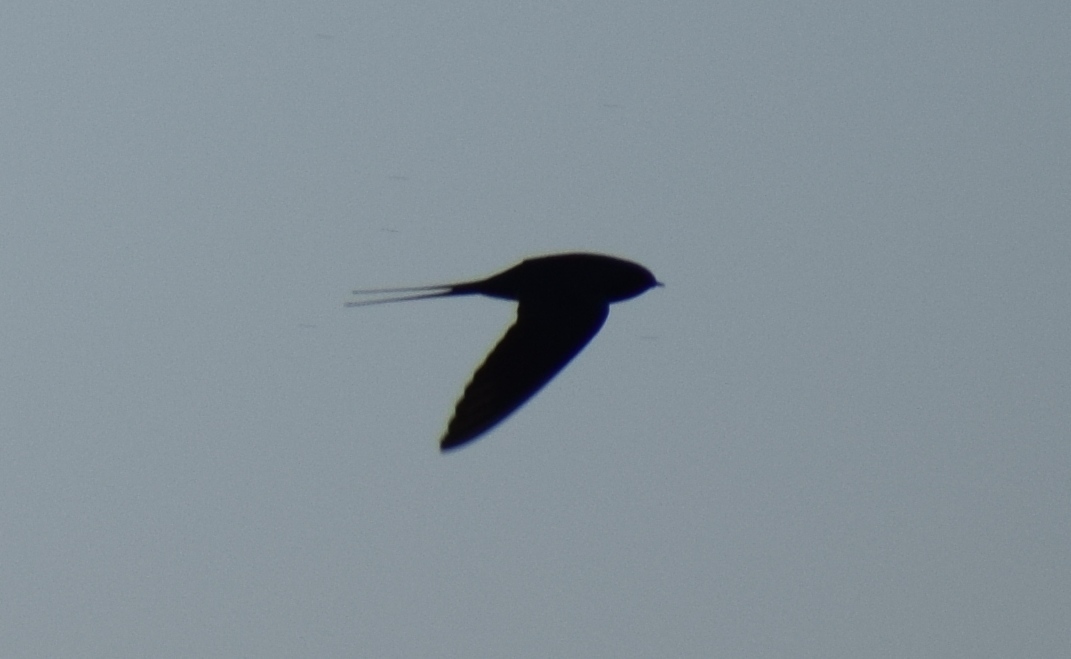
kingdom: Animalia
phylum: Chordata
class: Aves
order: Passeriformes
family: Hirundinidae
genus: Hirundo
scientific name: Hirundo rustica
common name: Barn swallow
